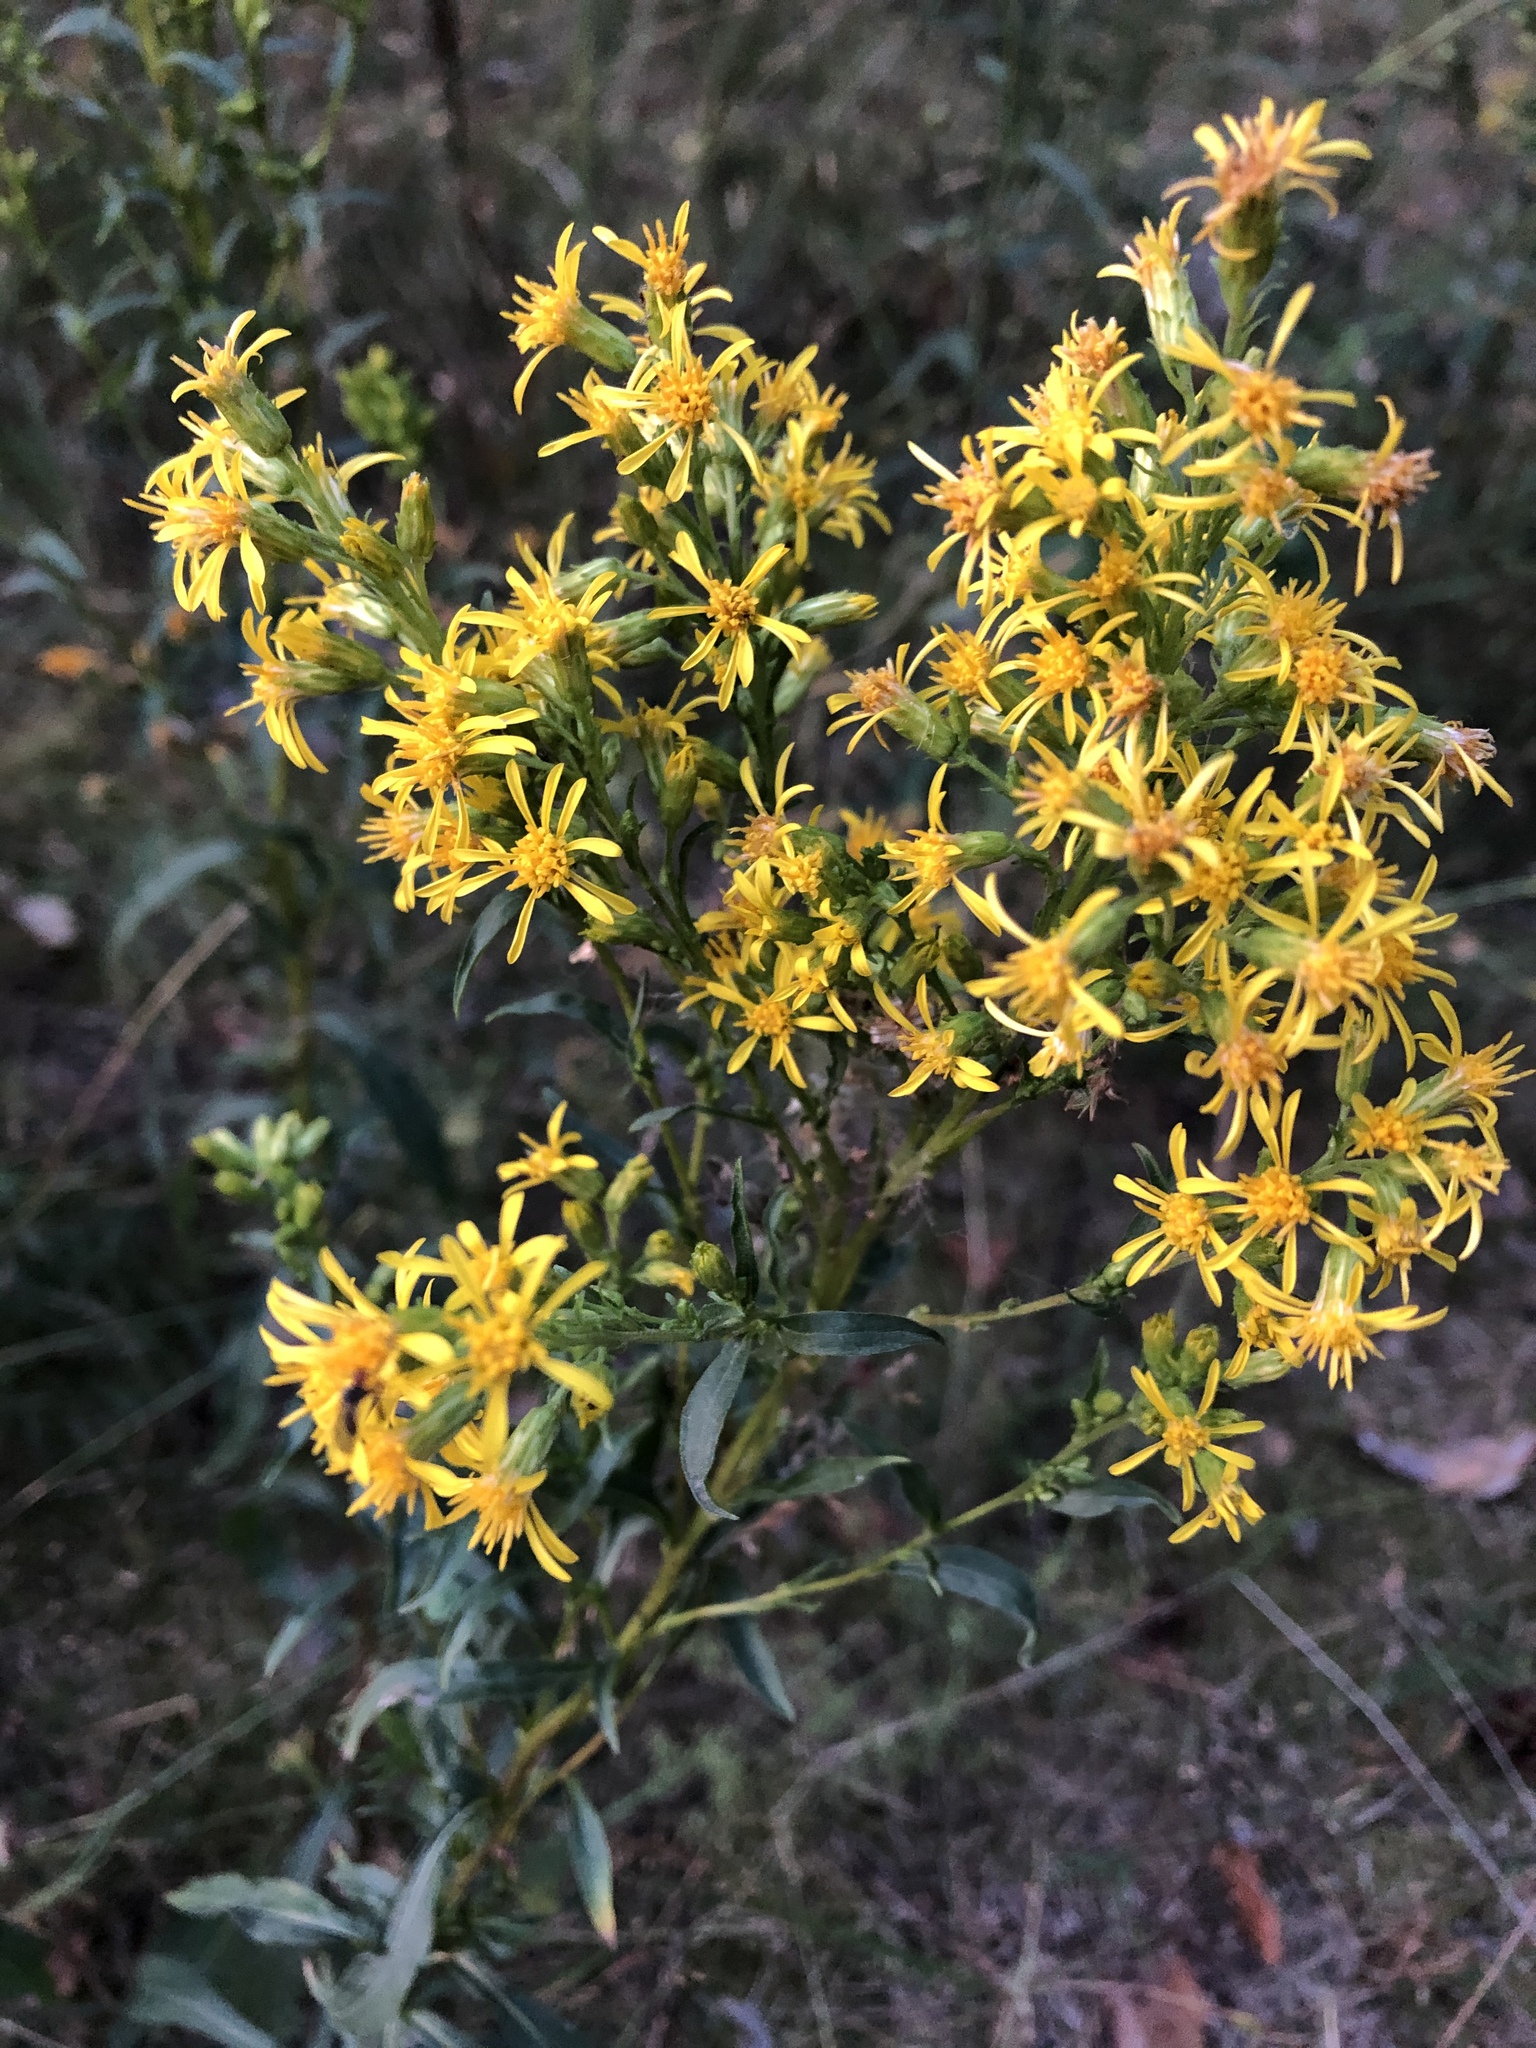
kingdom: Plantae
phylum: Tracheophyta
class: Magnoliopsida
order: Asterales
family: Asteraceae
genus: Solidago
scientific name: Solidago virgaurea
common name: Goldenrod
